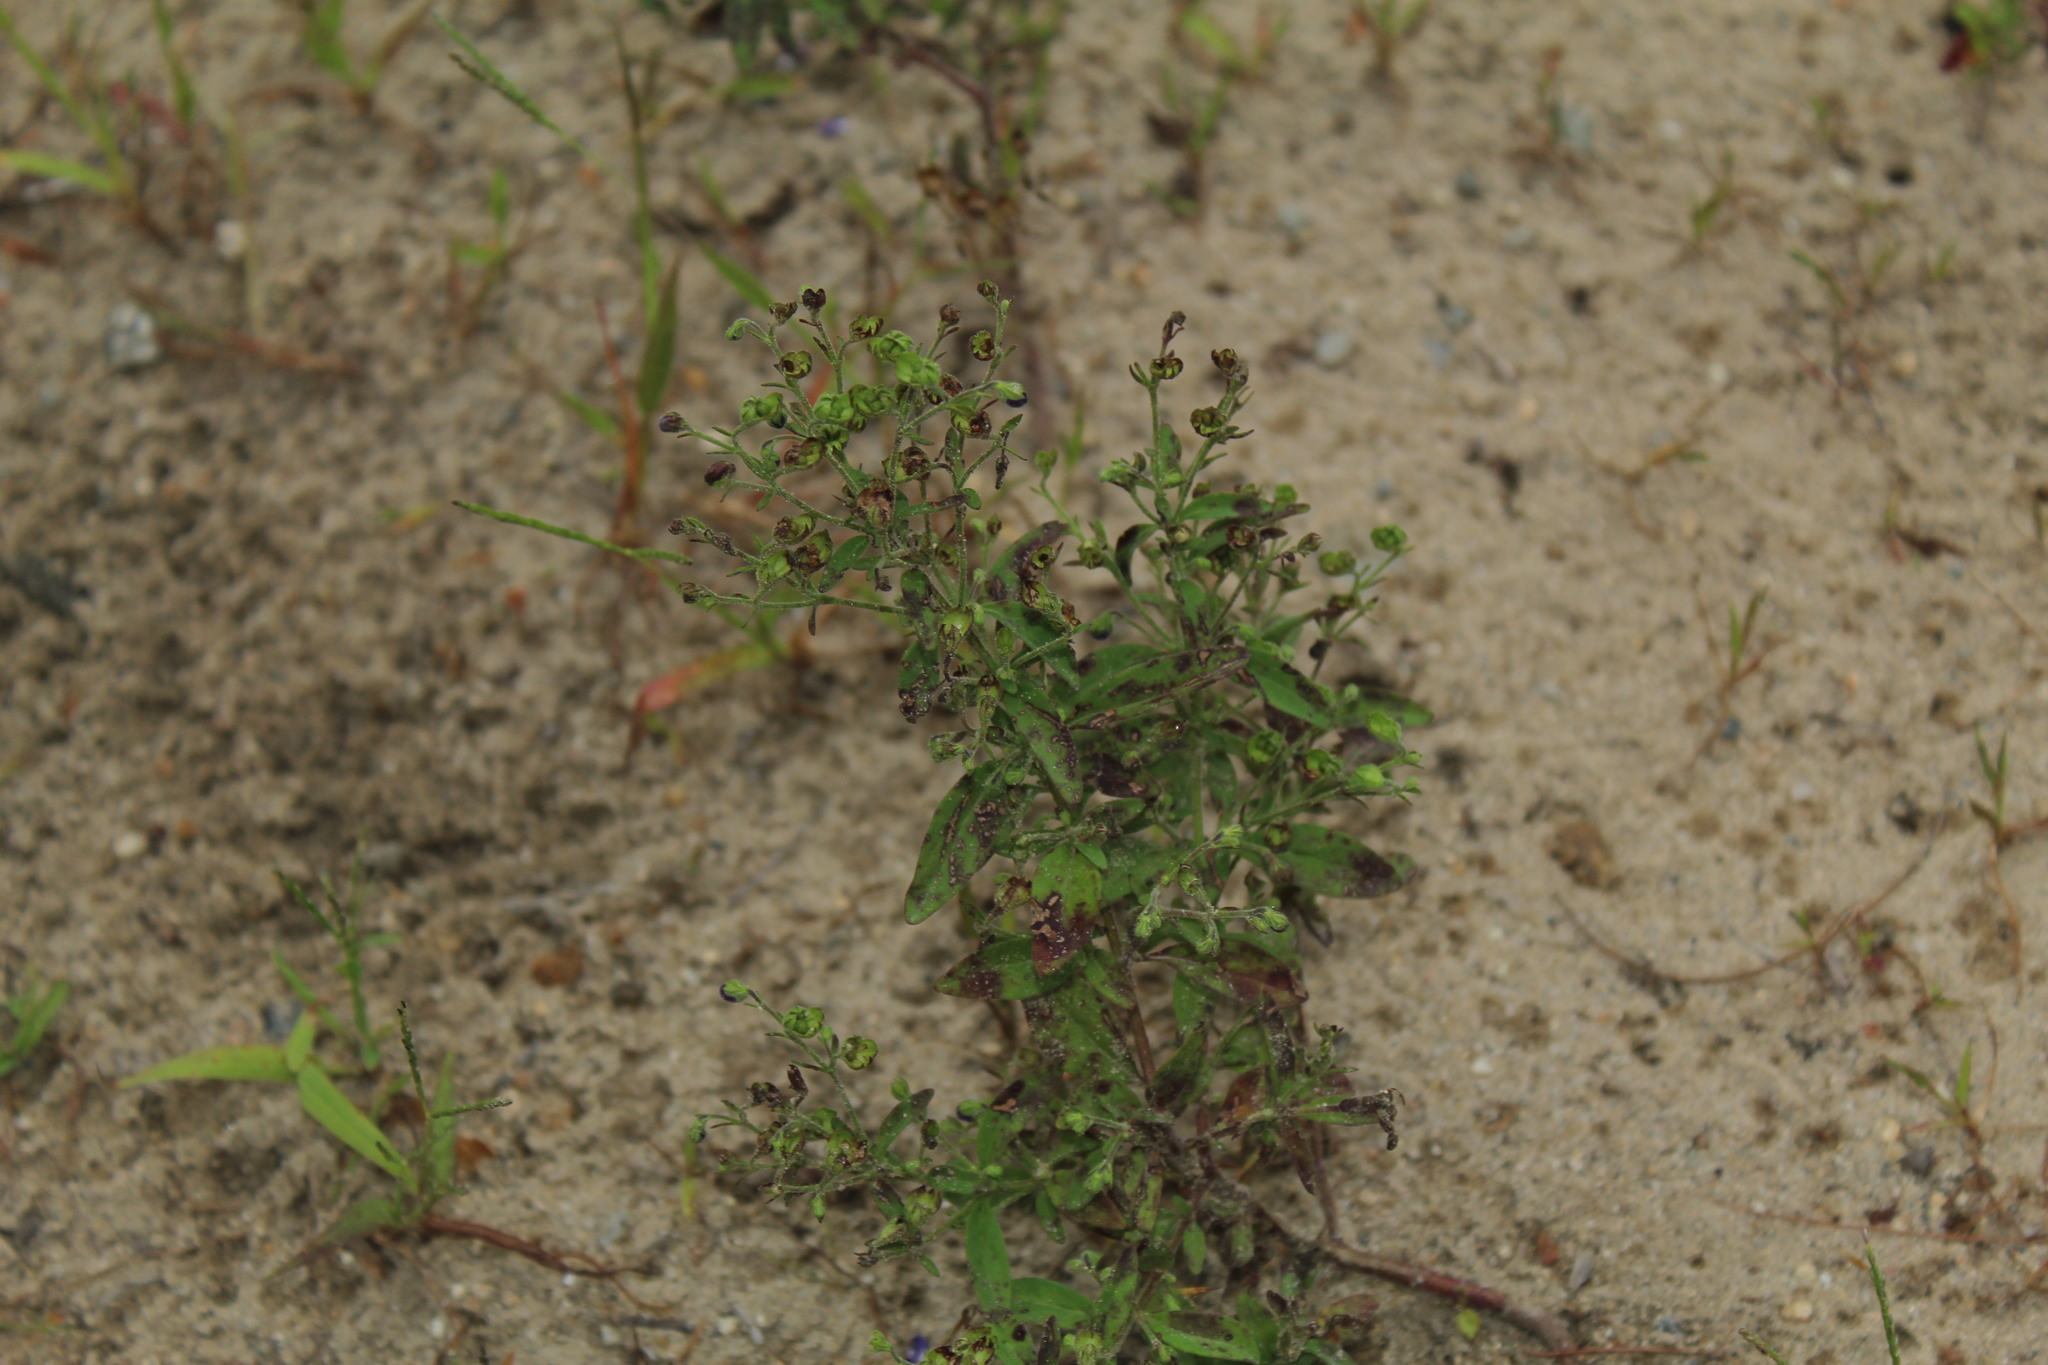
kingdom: Plantae
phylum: Tracheophyta
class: Magnoliopsida
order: Lamiales
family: Lamiaceae
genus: Trichostema
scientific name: Trichostema dichotomum
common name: Bastard pennyroyal
